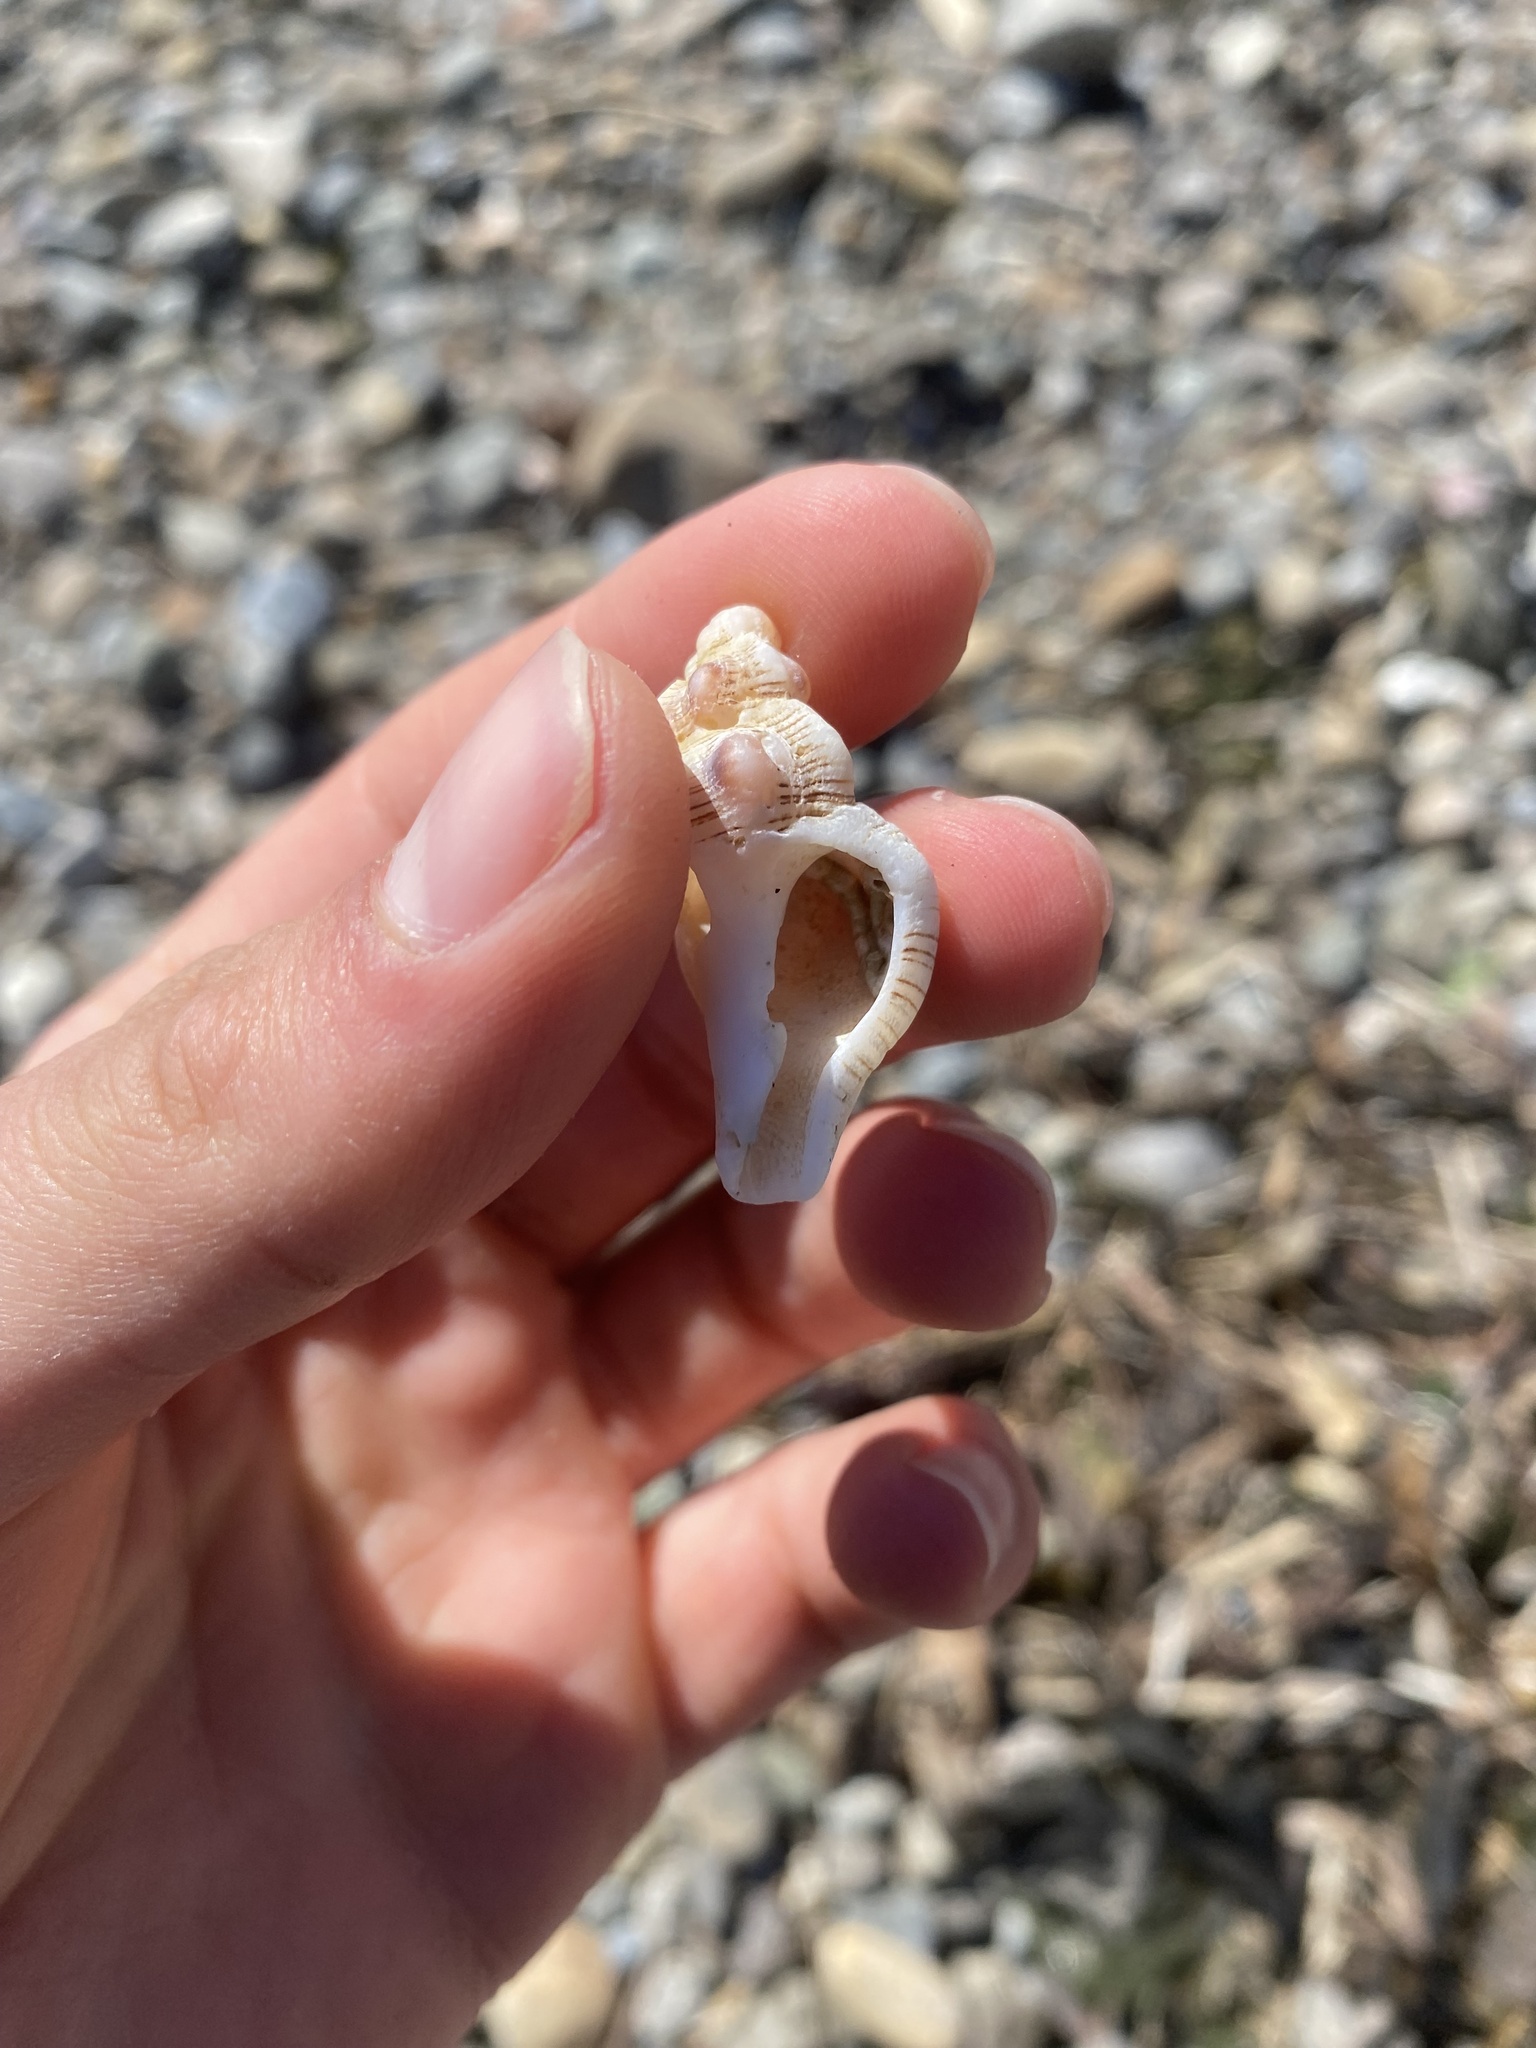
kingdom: Animalia
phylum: Mollusca
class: Gastropoda
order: Neogastropoda
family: Fasciolariidae
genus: Harfordia
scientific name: Harfordia harfordii
